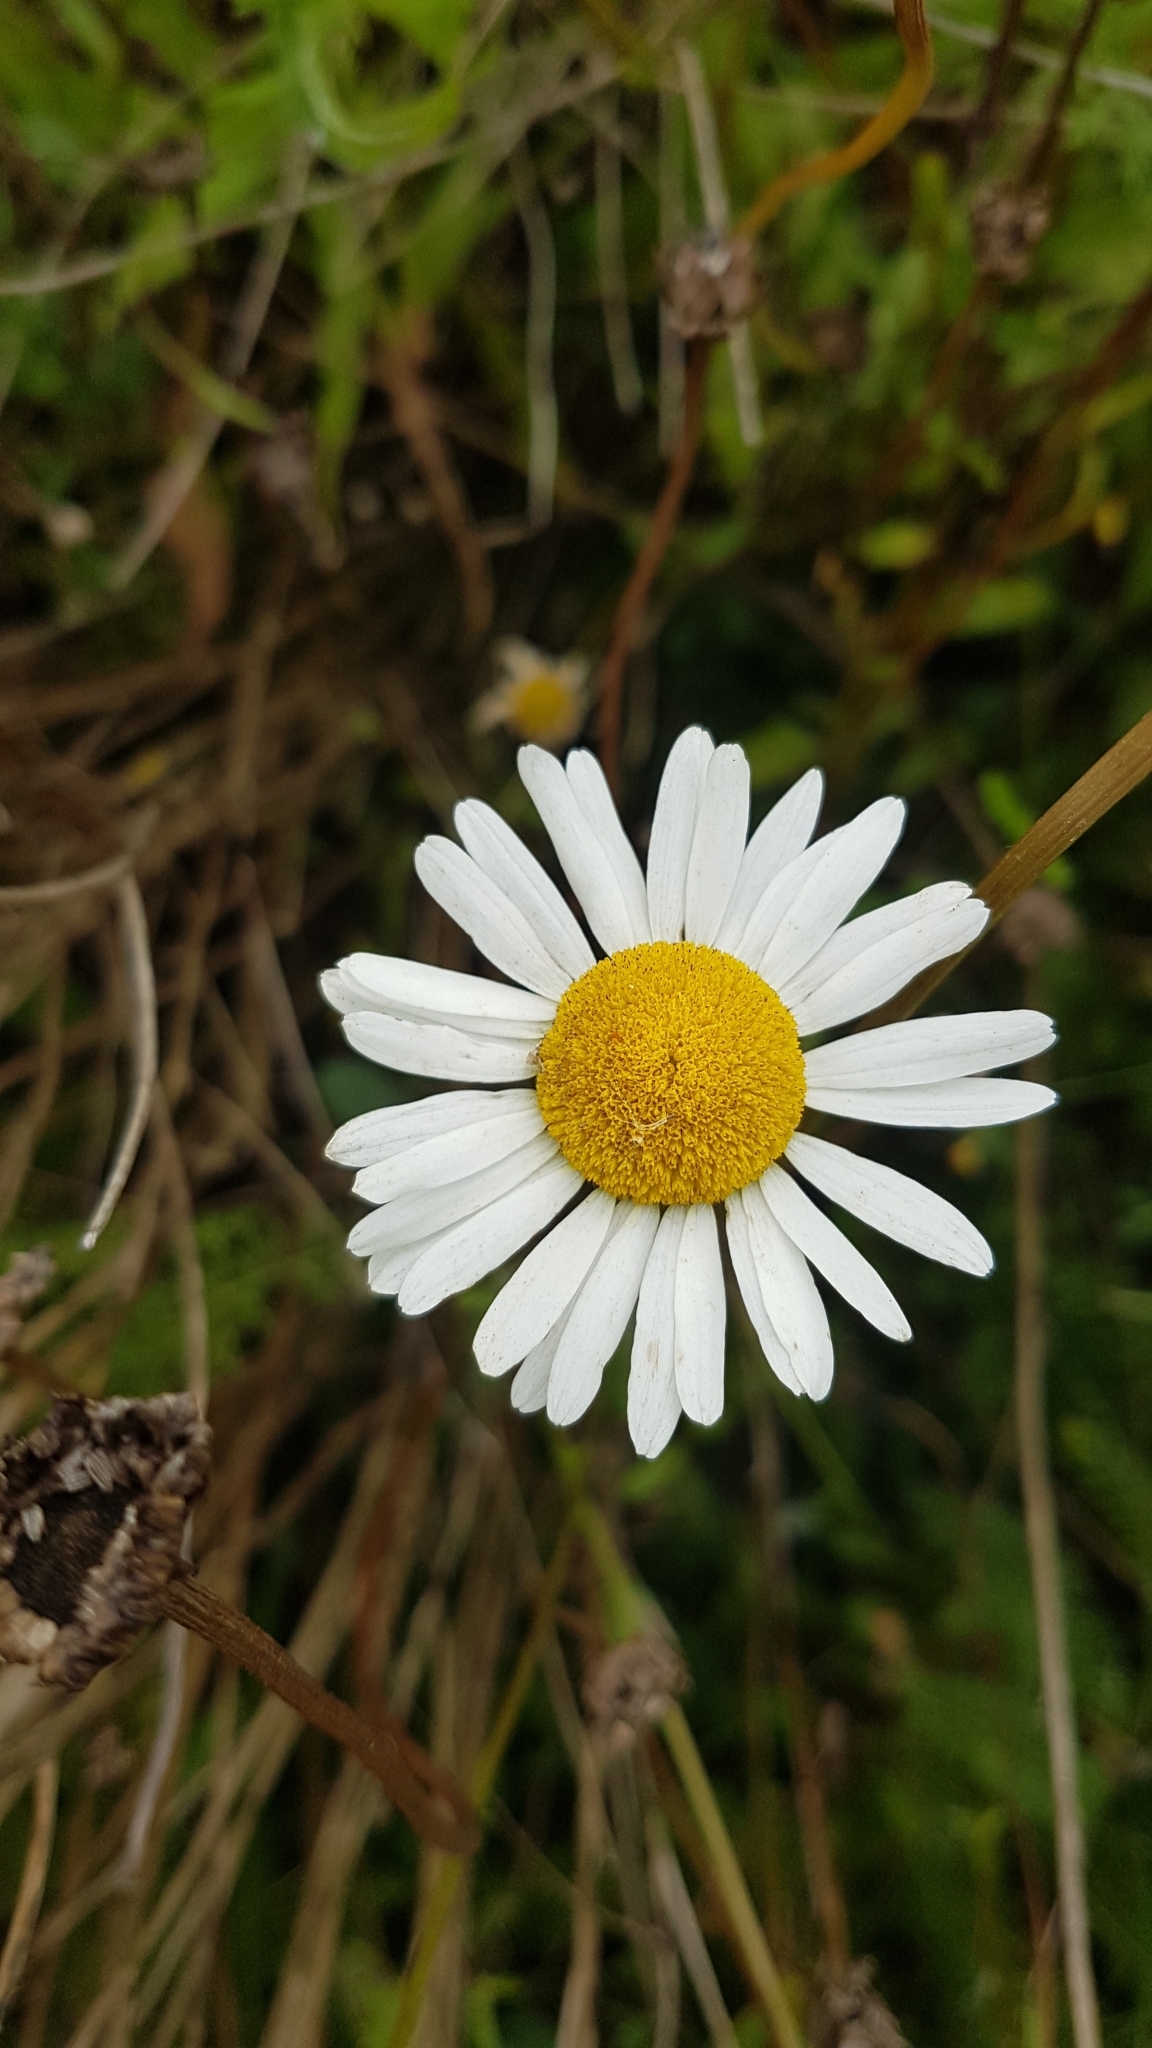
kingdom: Plantae
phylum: Tracheophyta
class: Magnoliopsida
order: Asterales
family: Asteraceae
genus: Leucanthemum
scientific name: Leucanthemum vulgare
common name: Oxeye daisy
